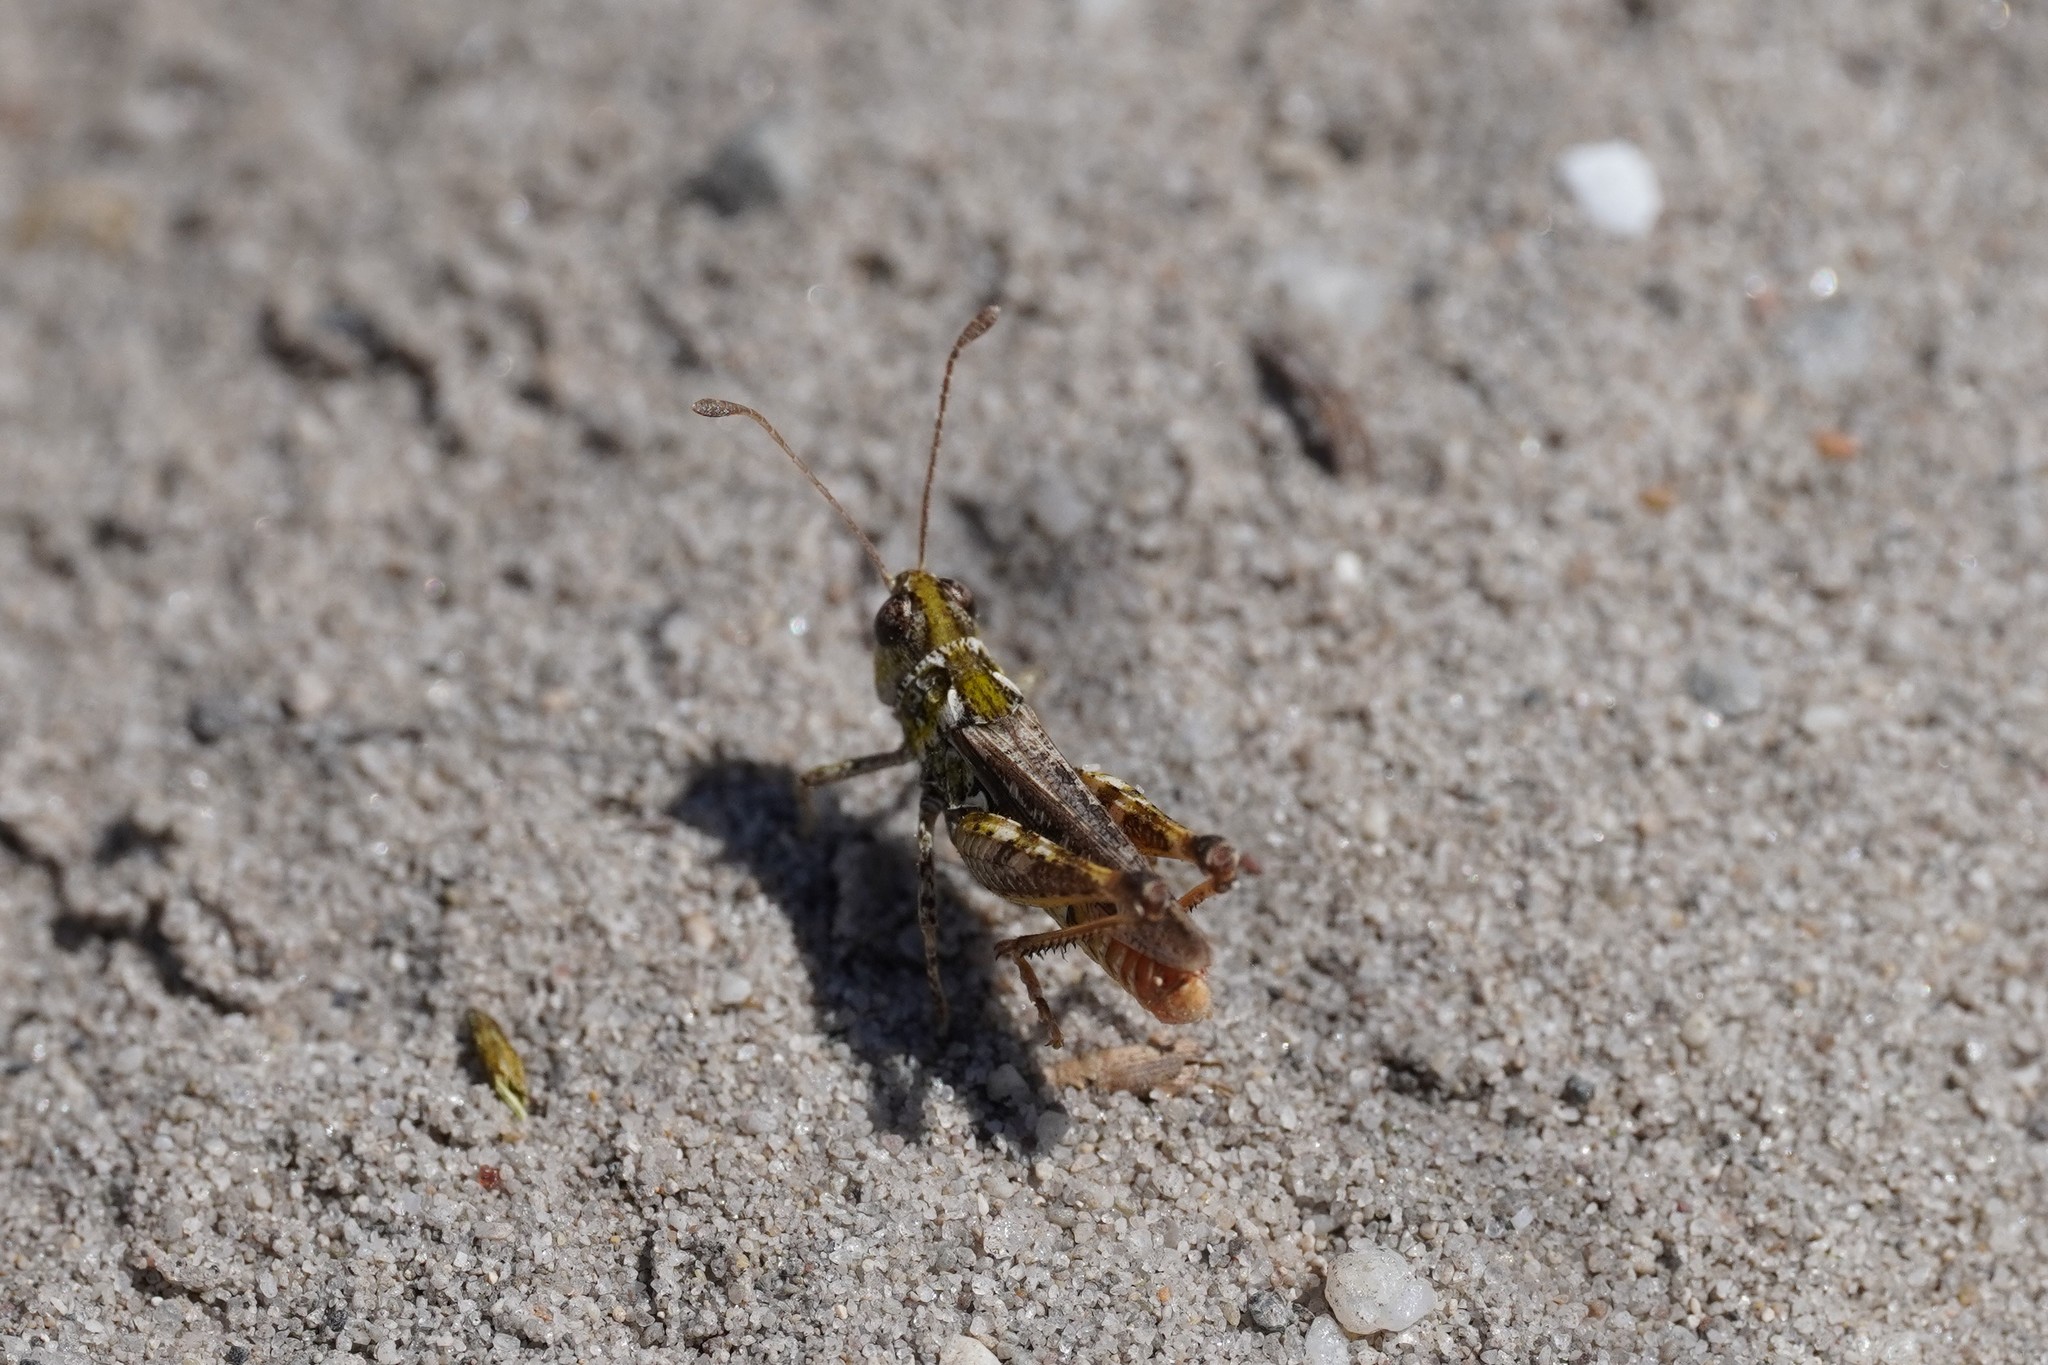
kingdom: Animalia
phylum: Arthropoda
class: Insecta
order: Orthoptera
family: Acrididae
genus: Myrmeleotettix
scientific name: Myrmeleotettix maculatus
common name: Mottled grasshopper
